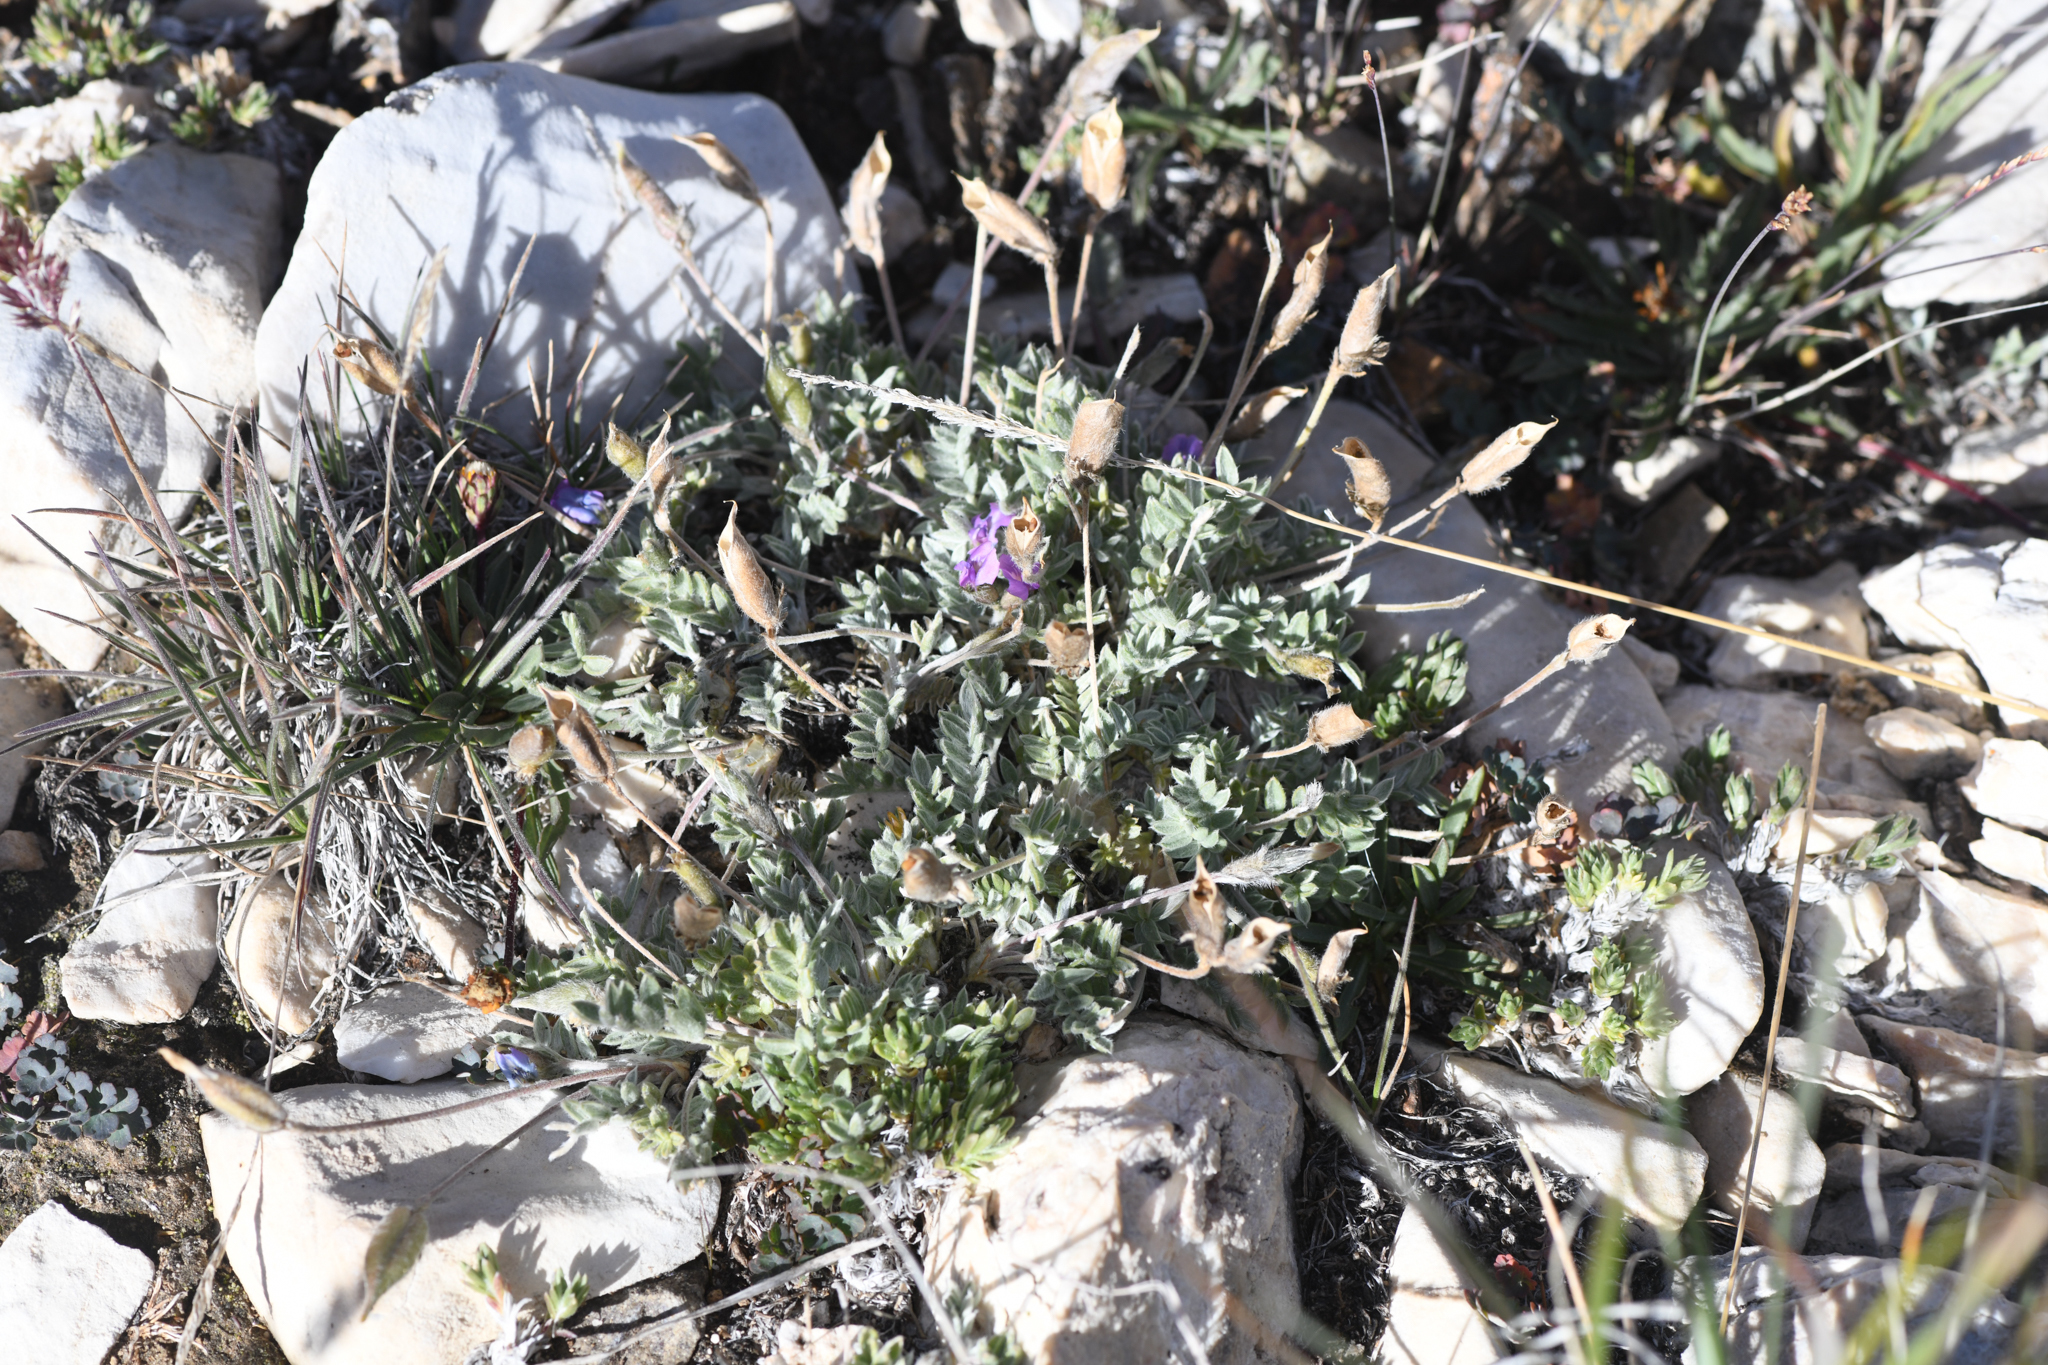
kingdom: Plantae
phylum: Tracheophyta
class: Magnoliopsida
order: Fabales
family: Fabaceae
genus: Oxytropis
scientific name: Oxytropis parryi
